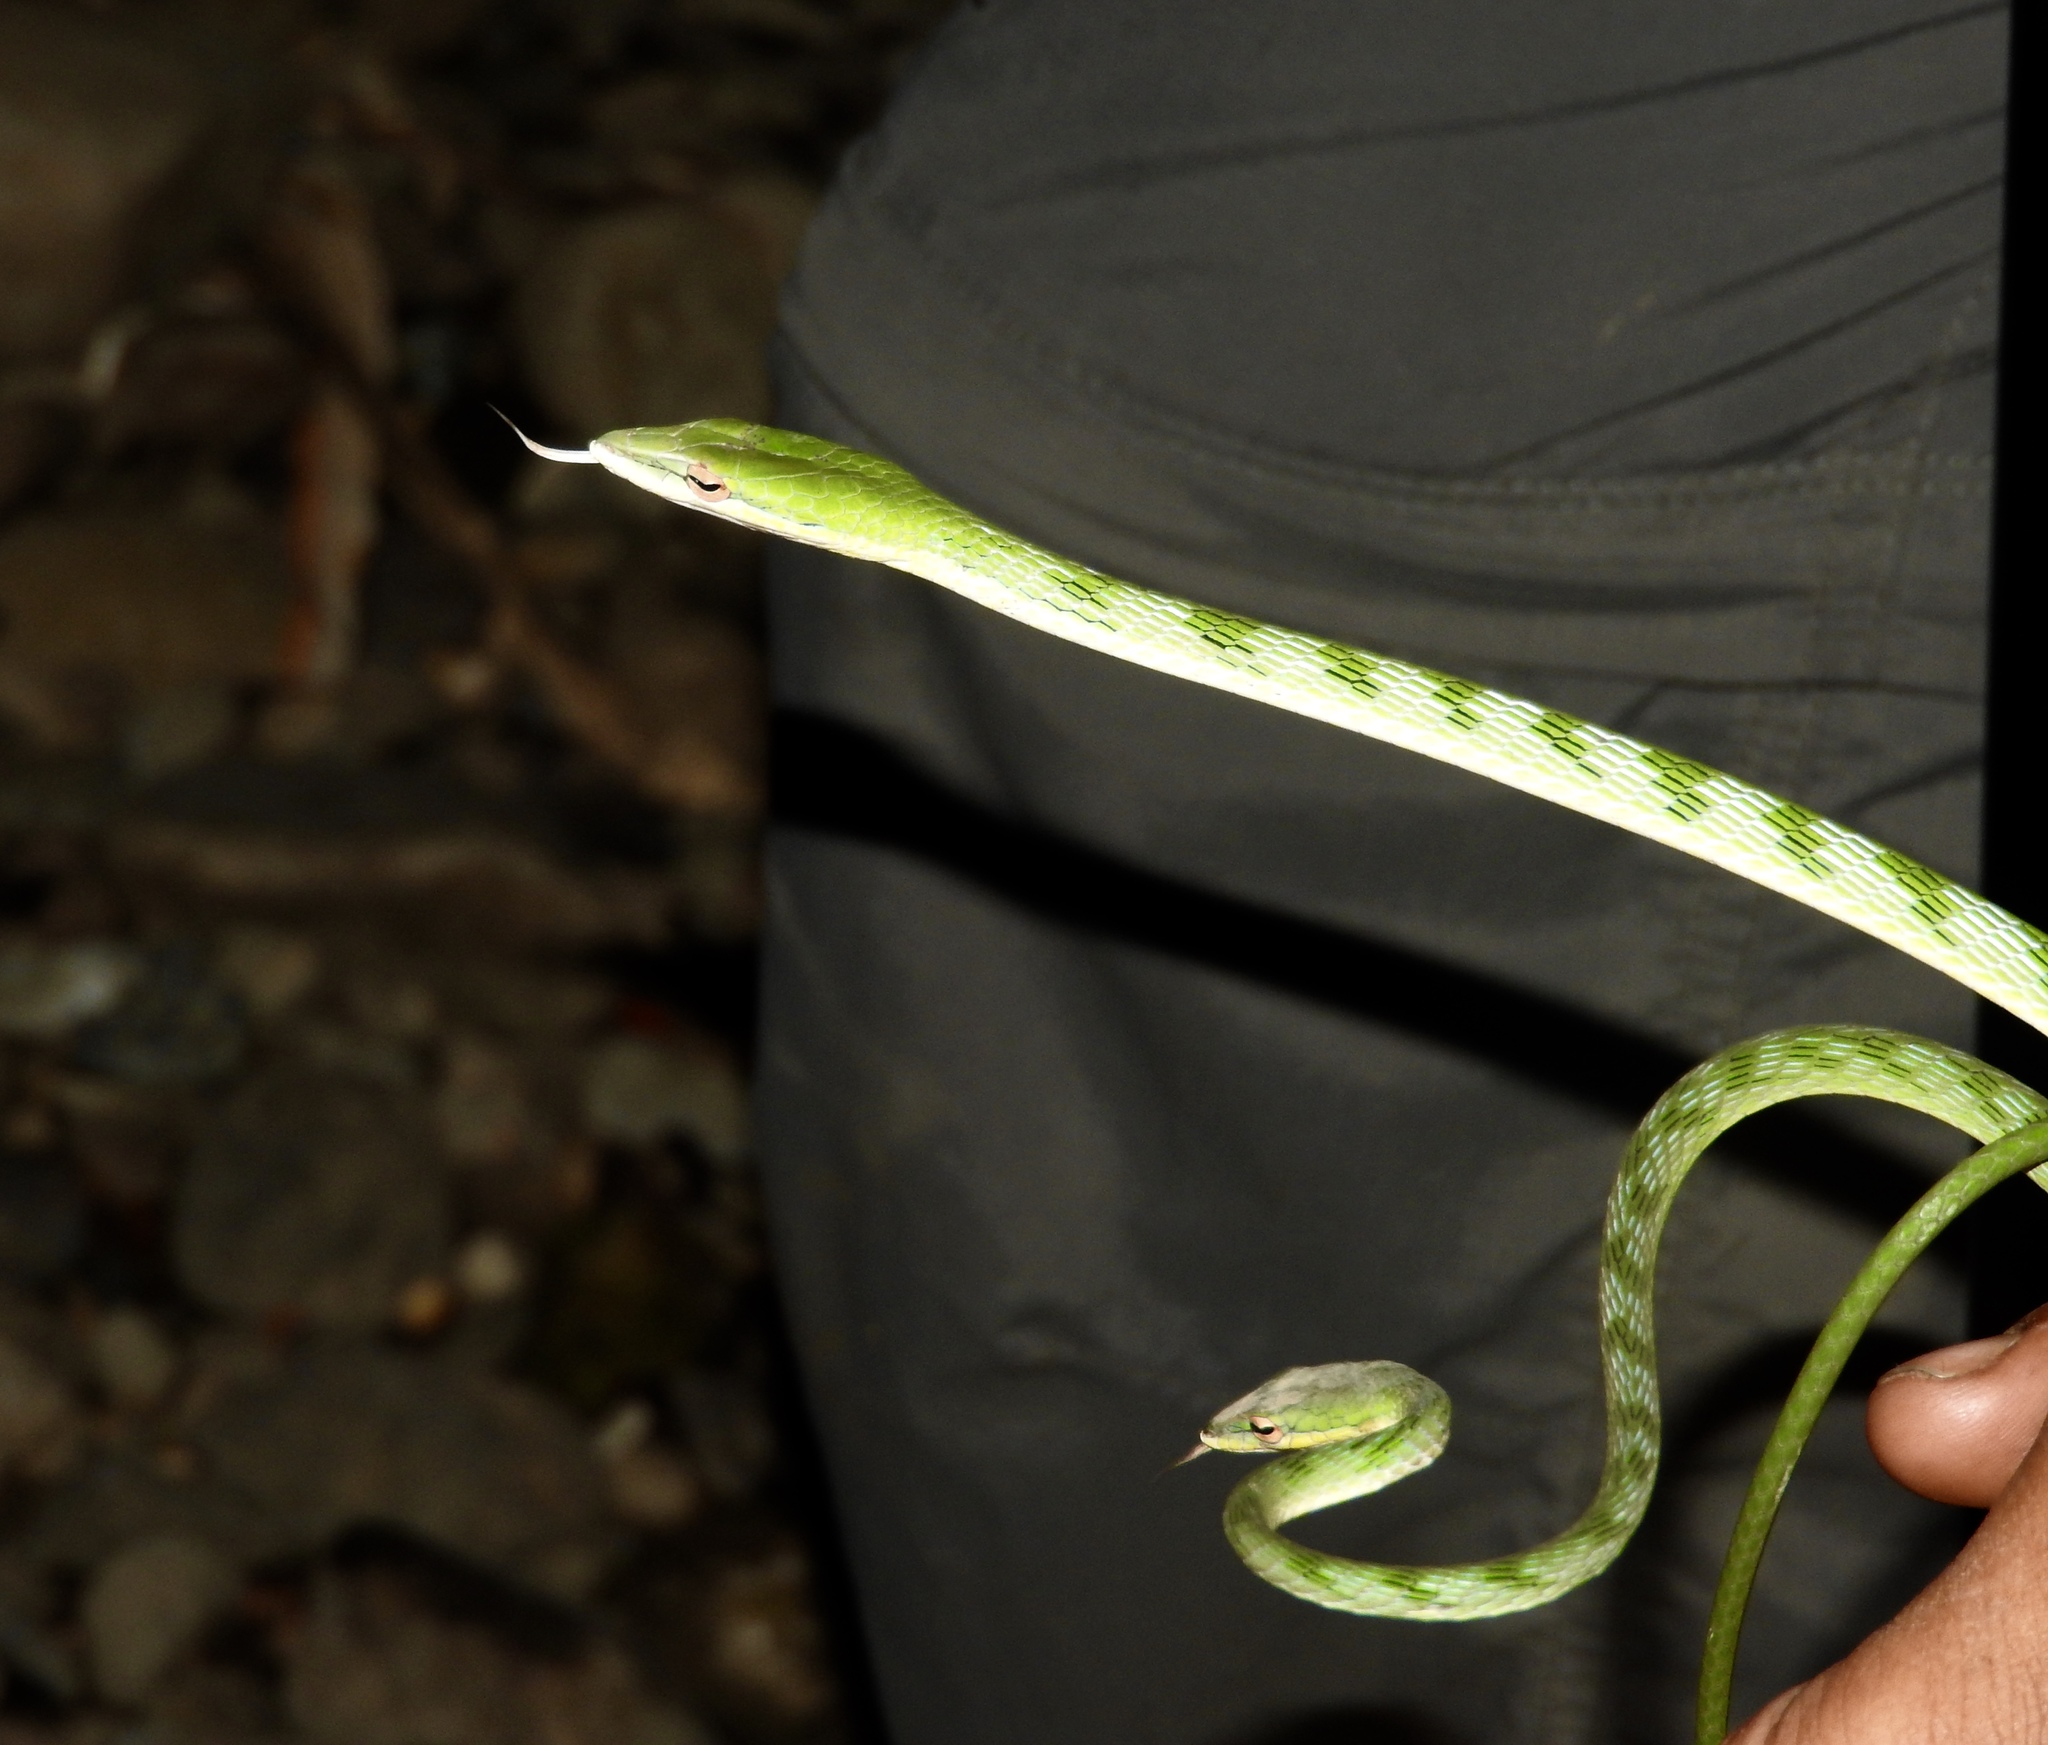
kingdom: Animalia
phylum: Chordata
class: Squamata
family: Colubridae
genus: Ahaetulla
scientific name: Ahaetulla mycterizans
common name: Malayan whip snake
